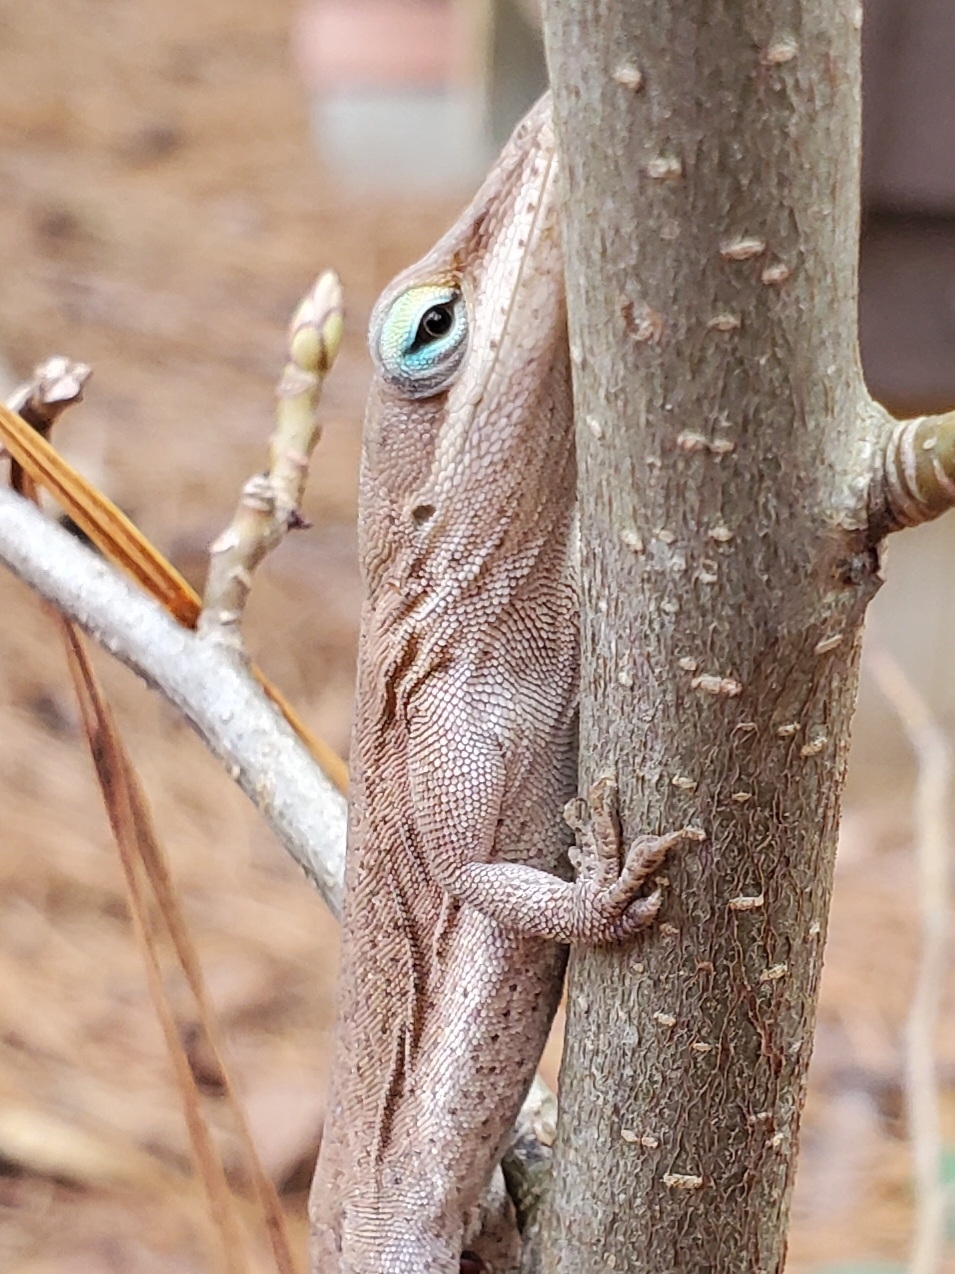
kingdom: Animalia
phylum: Chordata
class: Squamata
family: Dactyloidae
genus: Anolis
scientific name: Anolis carolinensis
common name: Green anole
